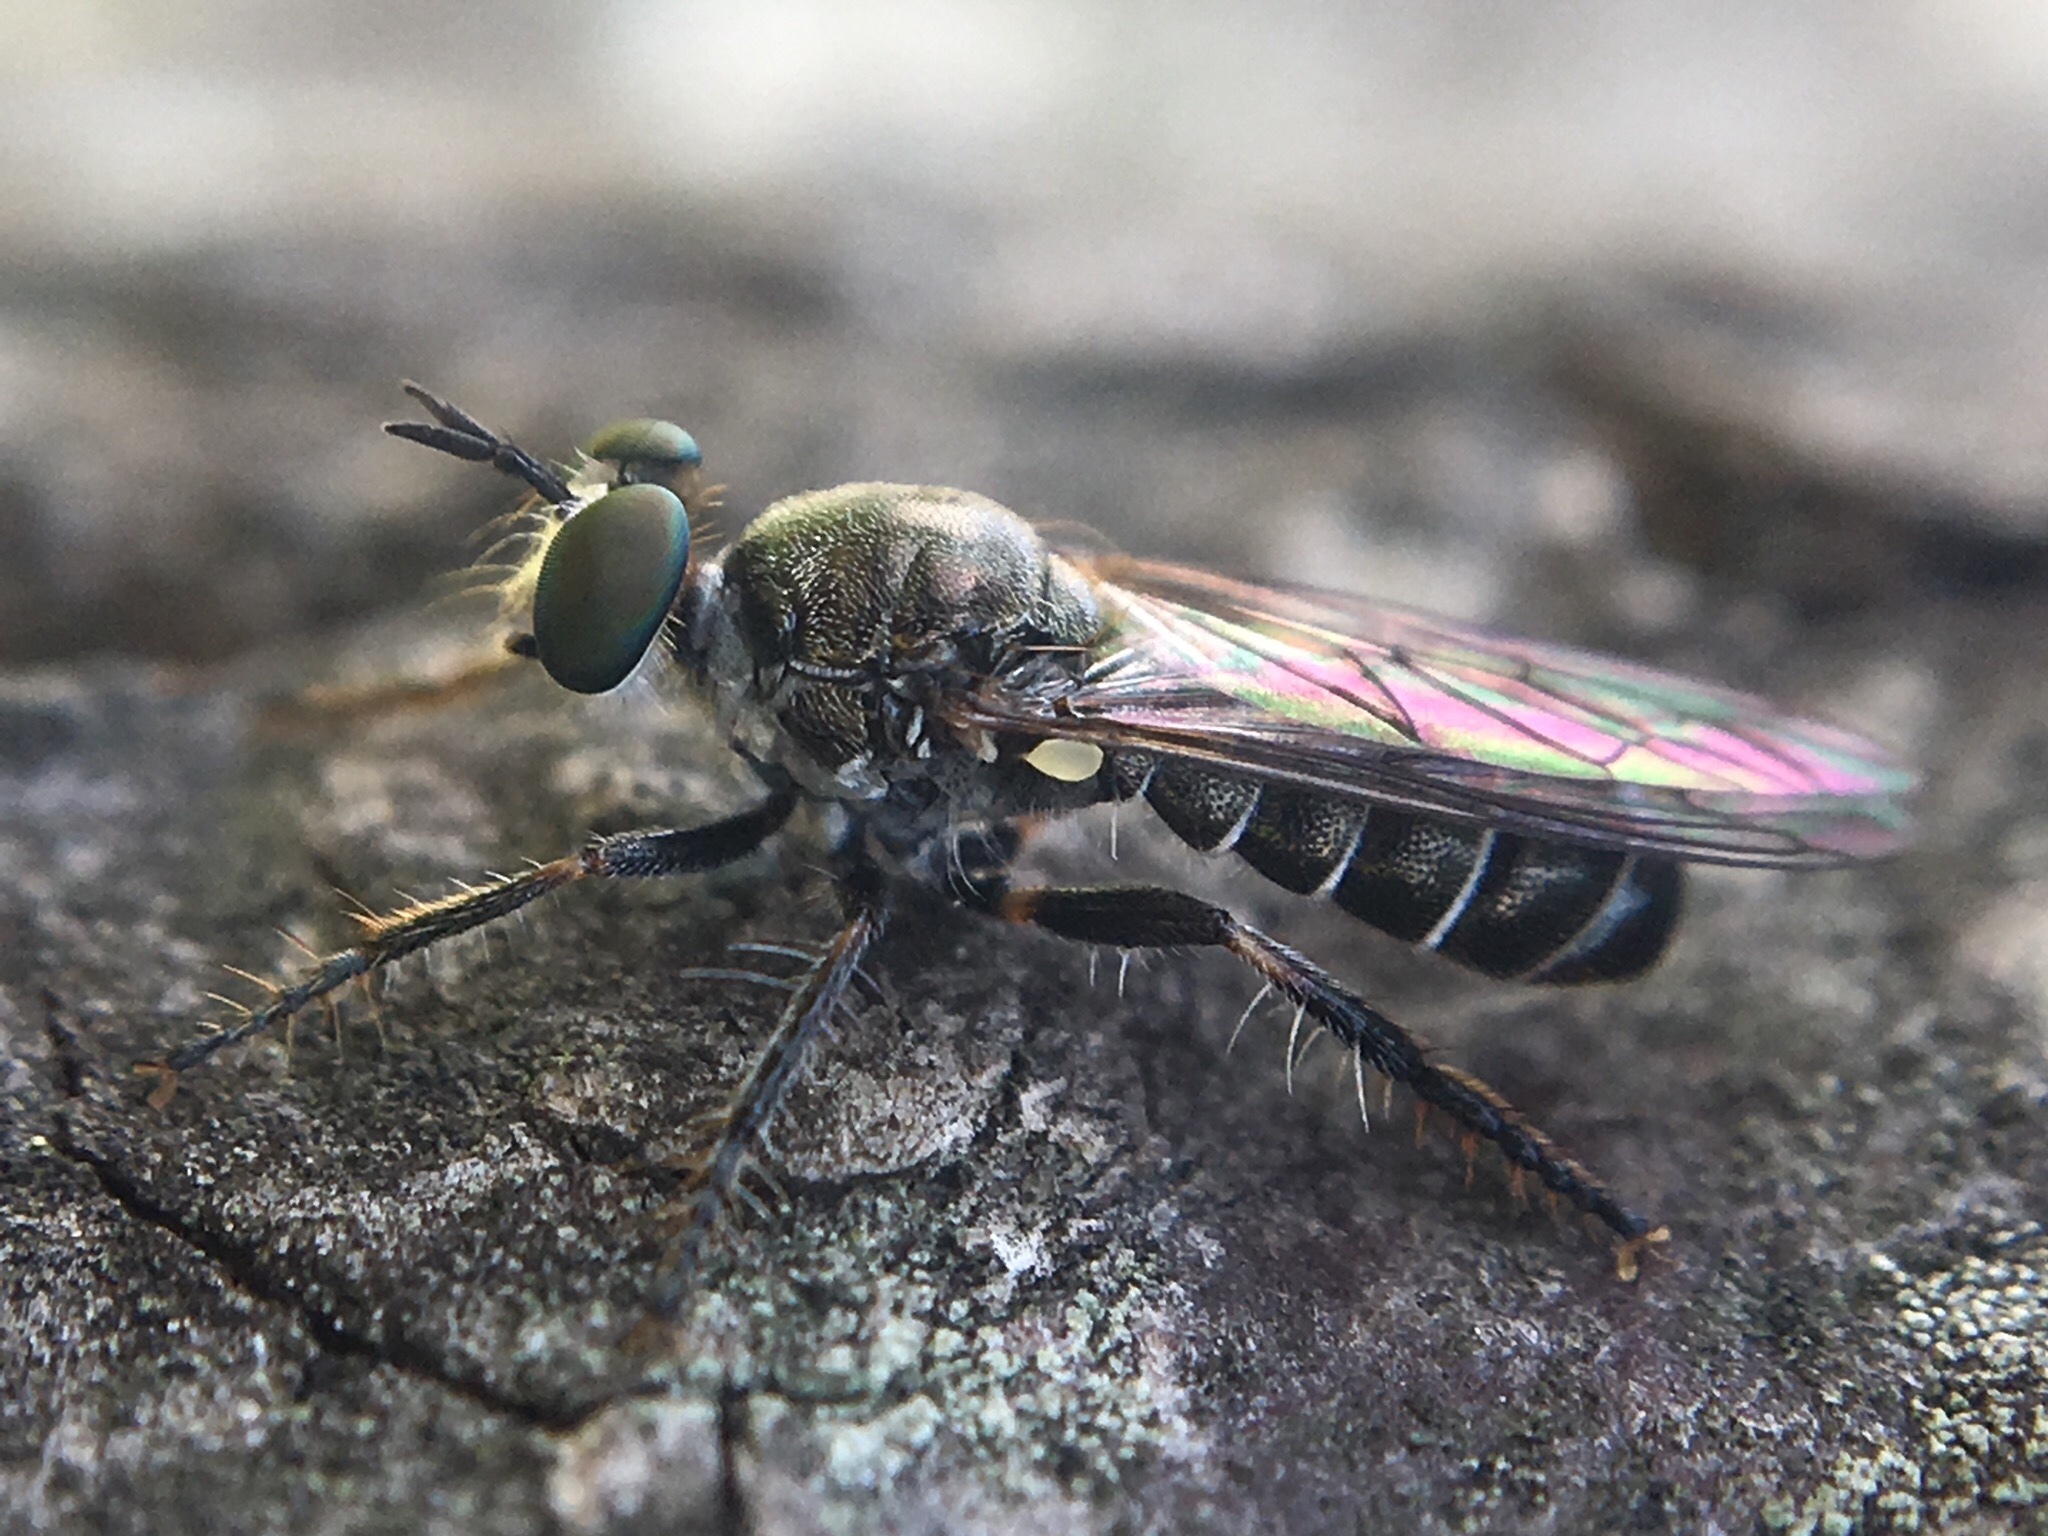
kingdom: Animalia
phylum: Arthropoda
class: Insecta
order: Diptera
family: Asilidae
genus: Atomosia
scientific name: Atomosia puella
